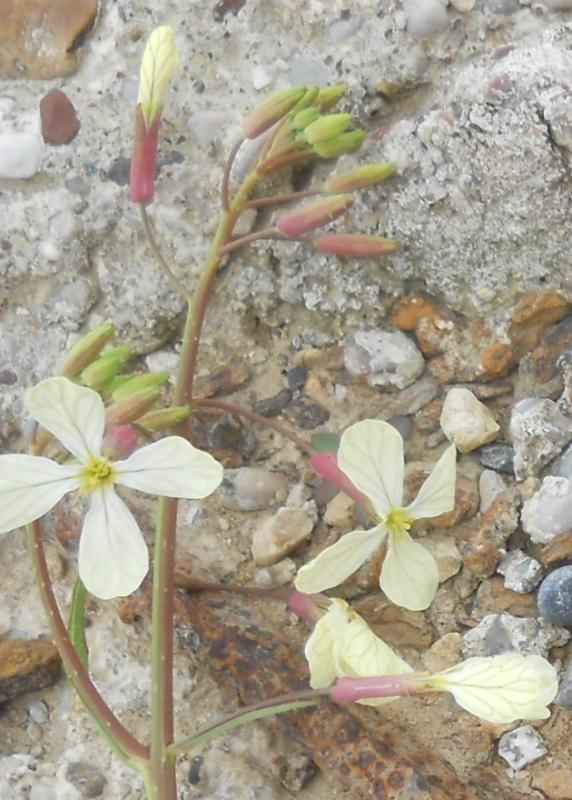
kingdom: Plantae
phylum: Tracheophyta
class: Magnoliopsida
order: Brassicales
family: Brassicaceae
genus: Raphanus
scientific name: Raphanus raphanistrum
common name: Wild radish
